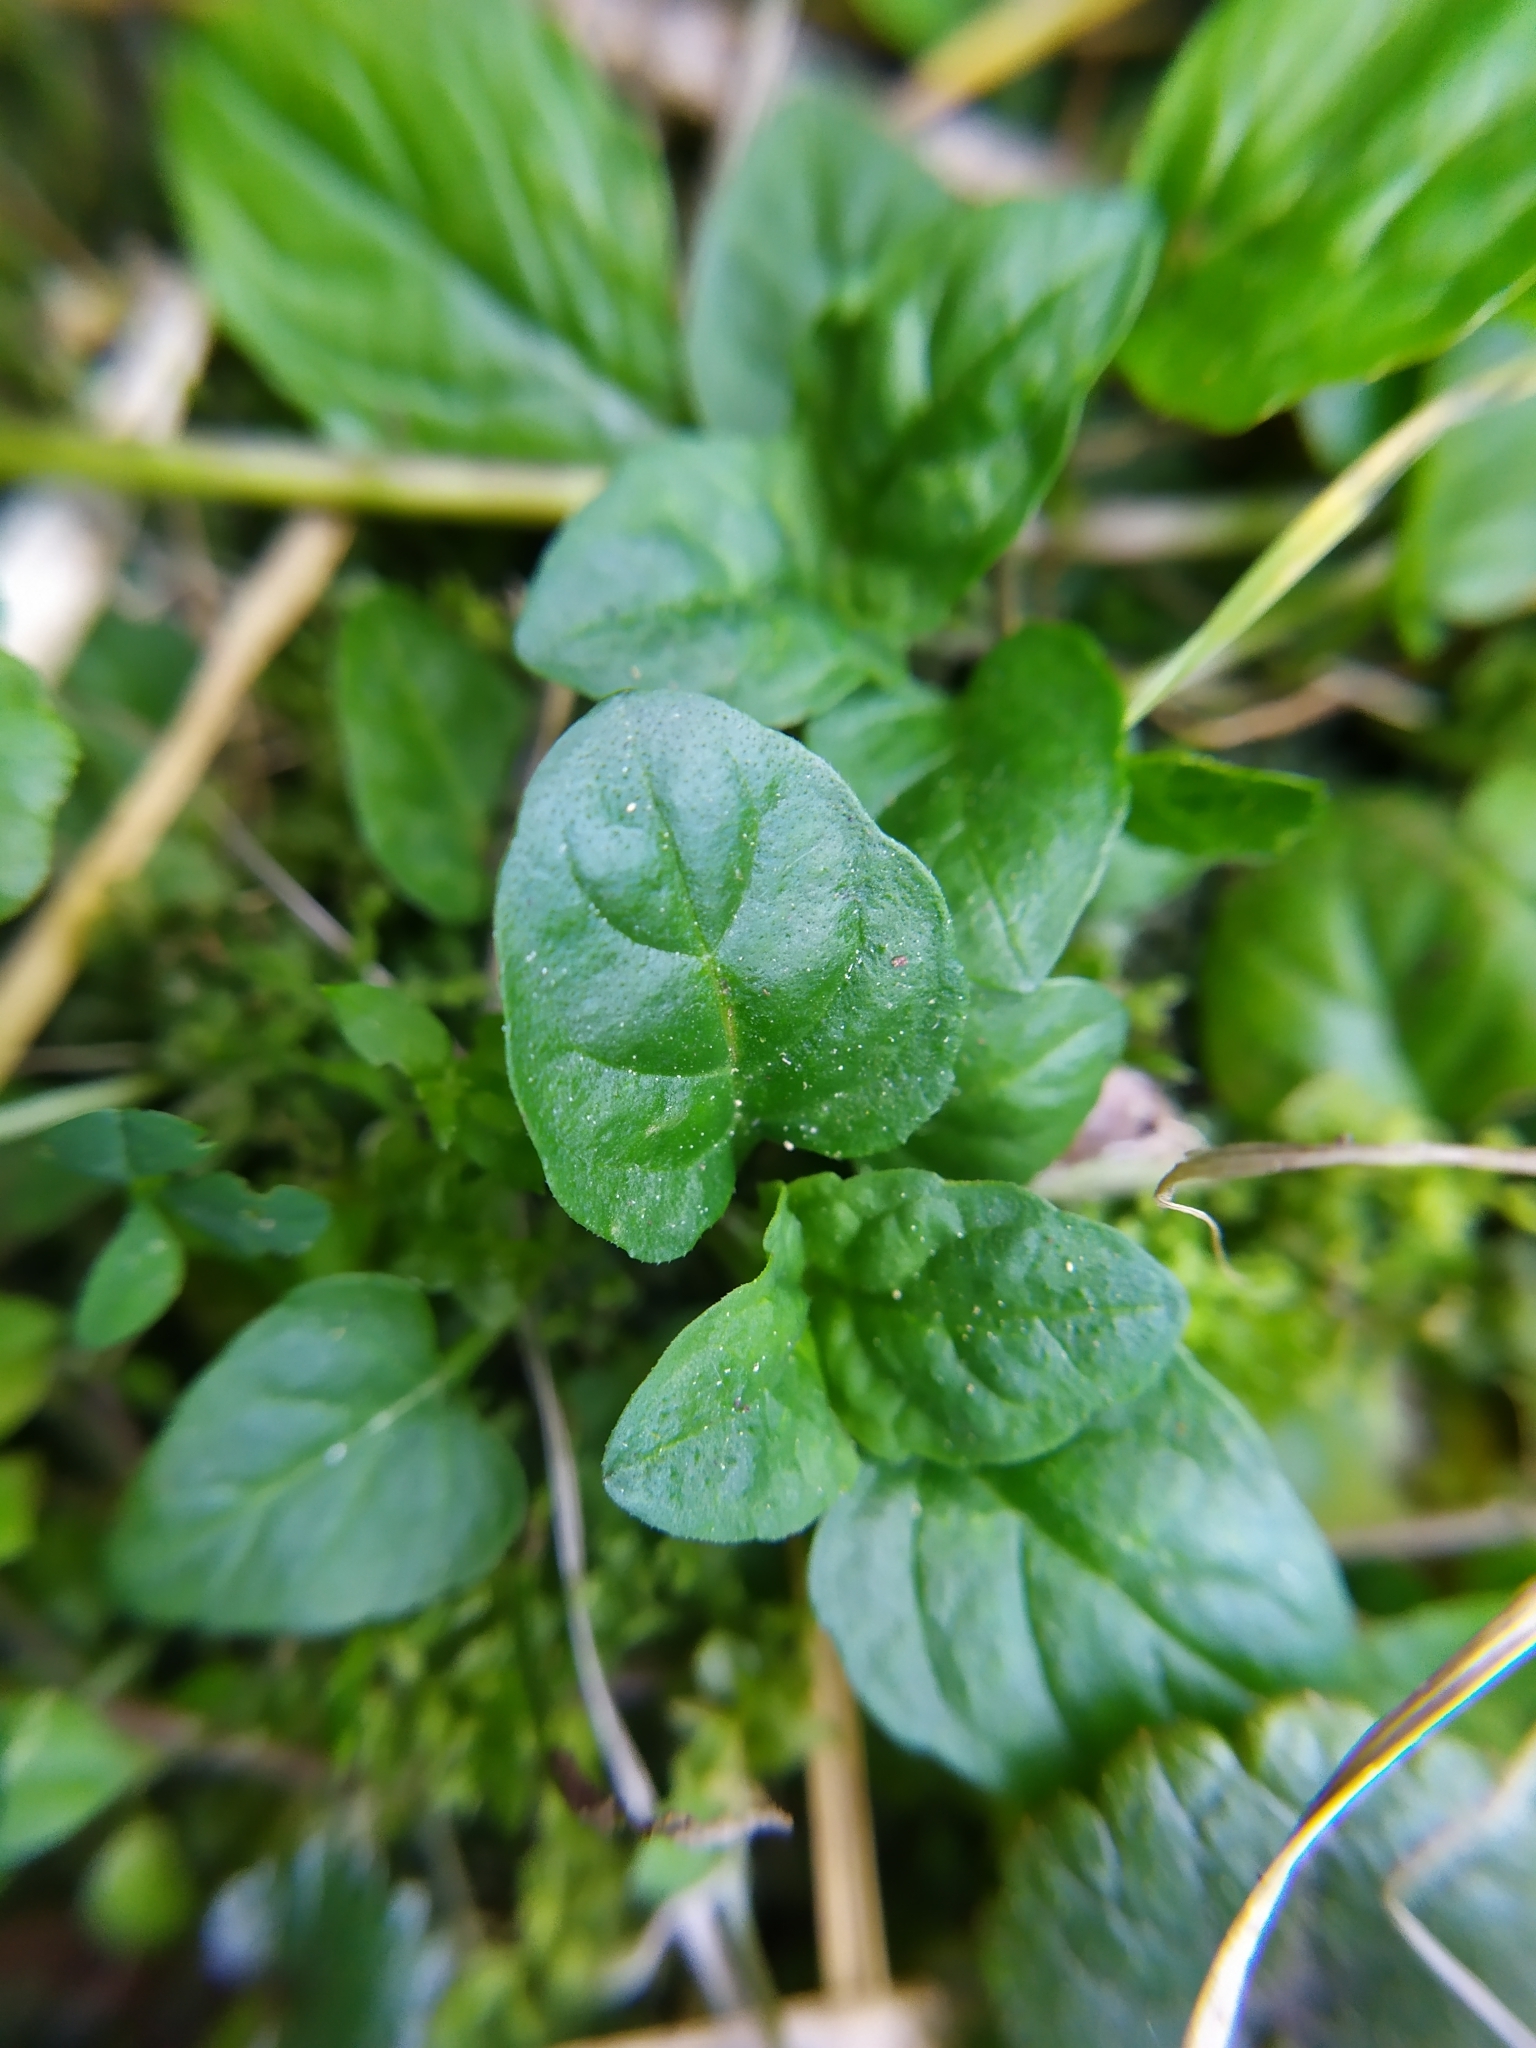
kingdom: Plantae
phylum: Tracheophyta
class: Magnoliopsida
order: Lamiales
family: Lamiaceae
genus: Prunella
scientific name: Prunella vulgaris
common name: Heal-all
